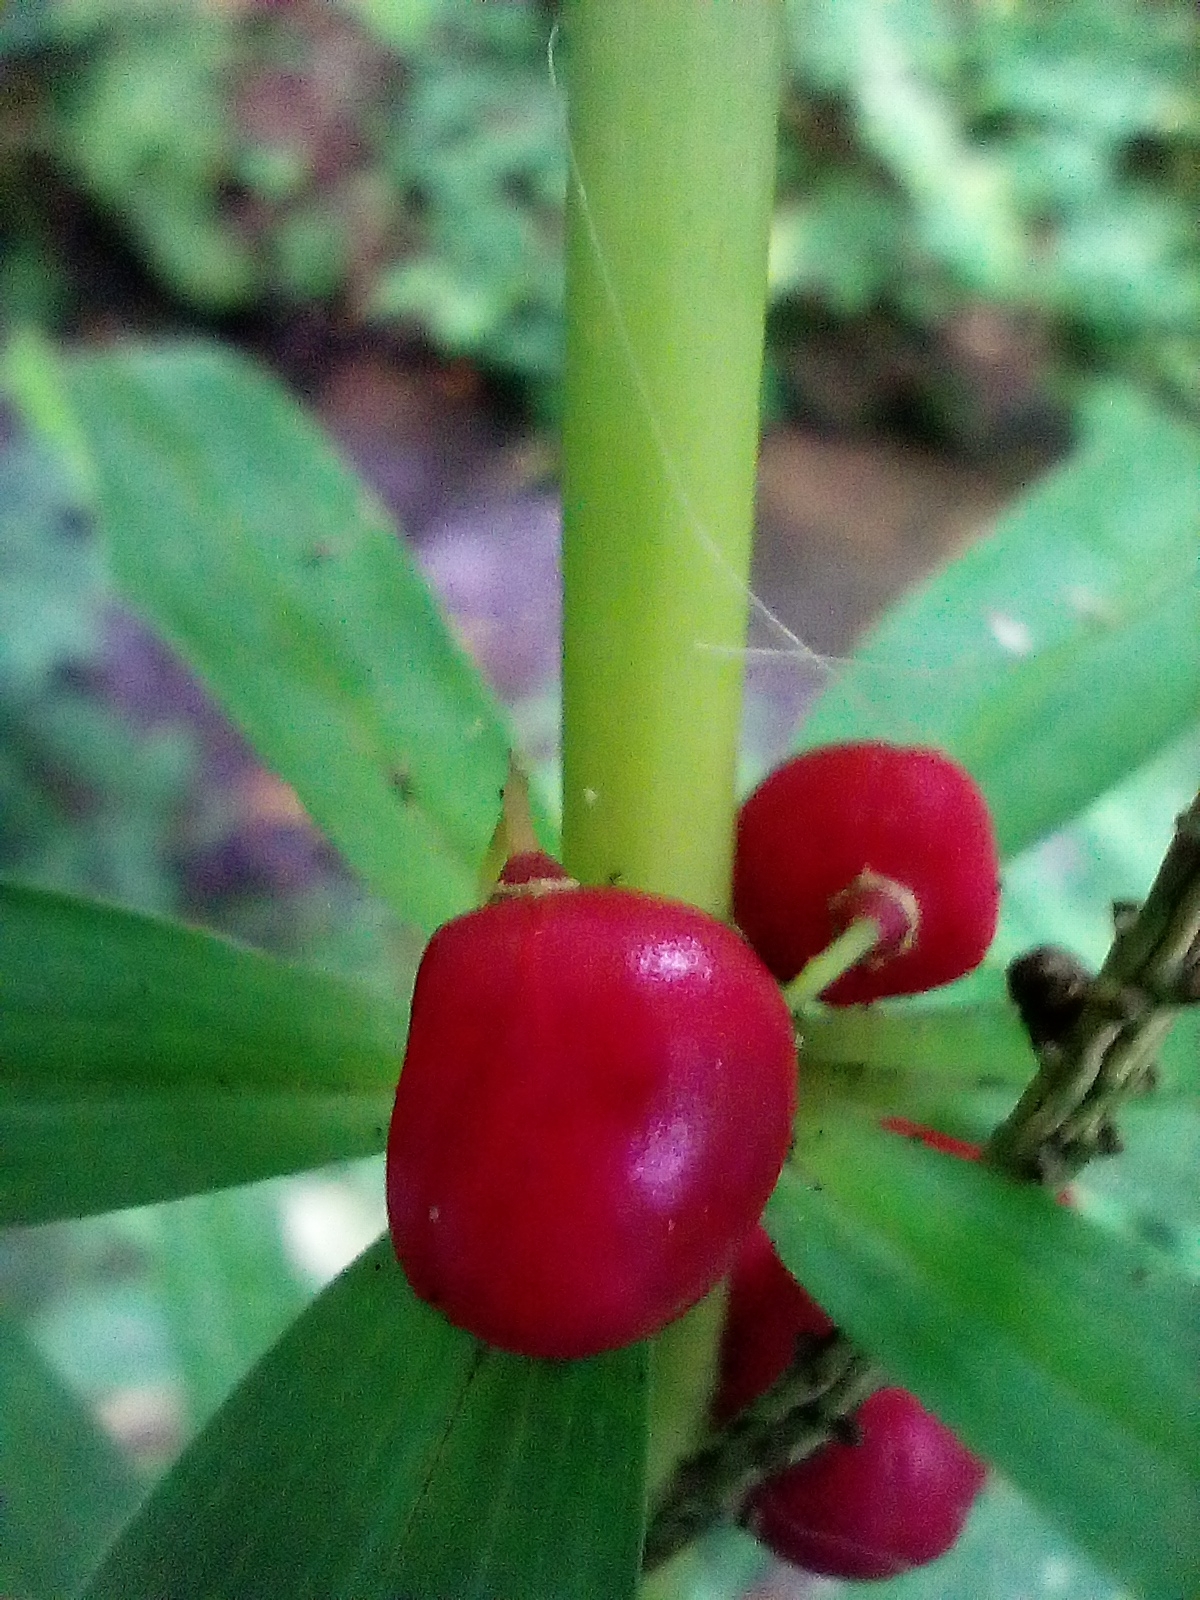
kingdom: Plantae
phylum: Tracheophyta
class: Liliopsida
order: Asparagales
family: Asparagaceae
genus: Polygonatum
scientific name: Polygonatum verticillatum
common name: Whorled solomon's-seal
